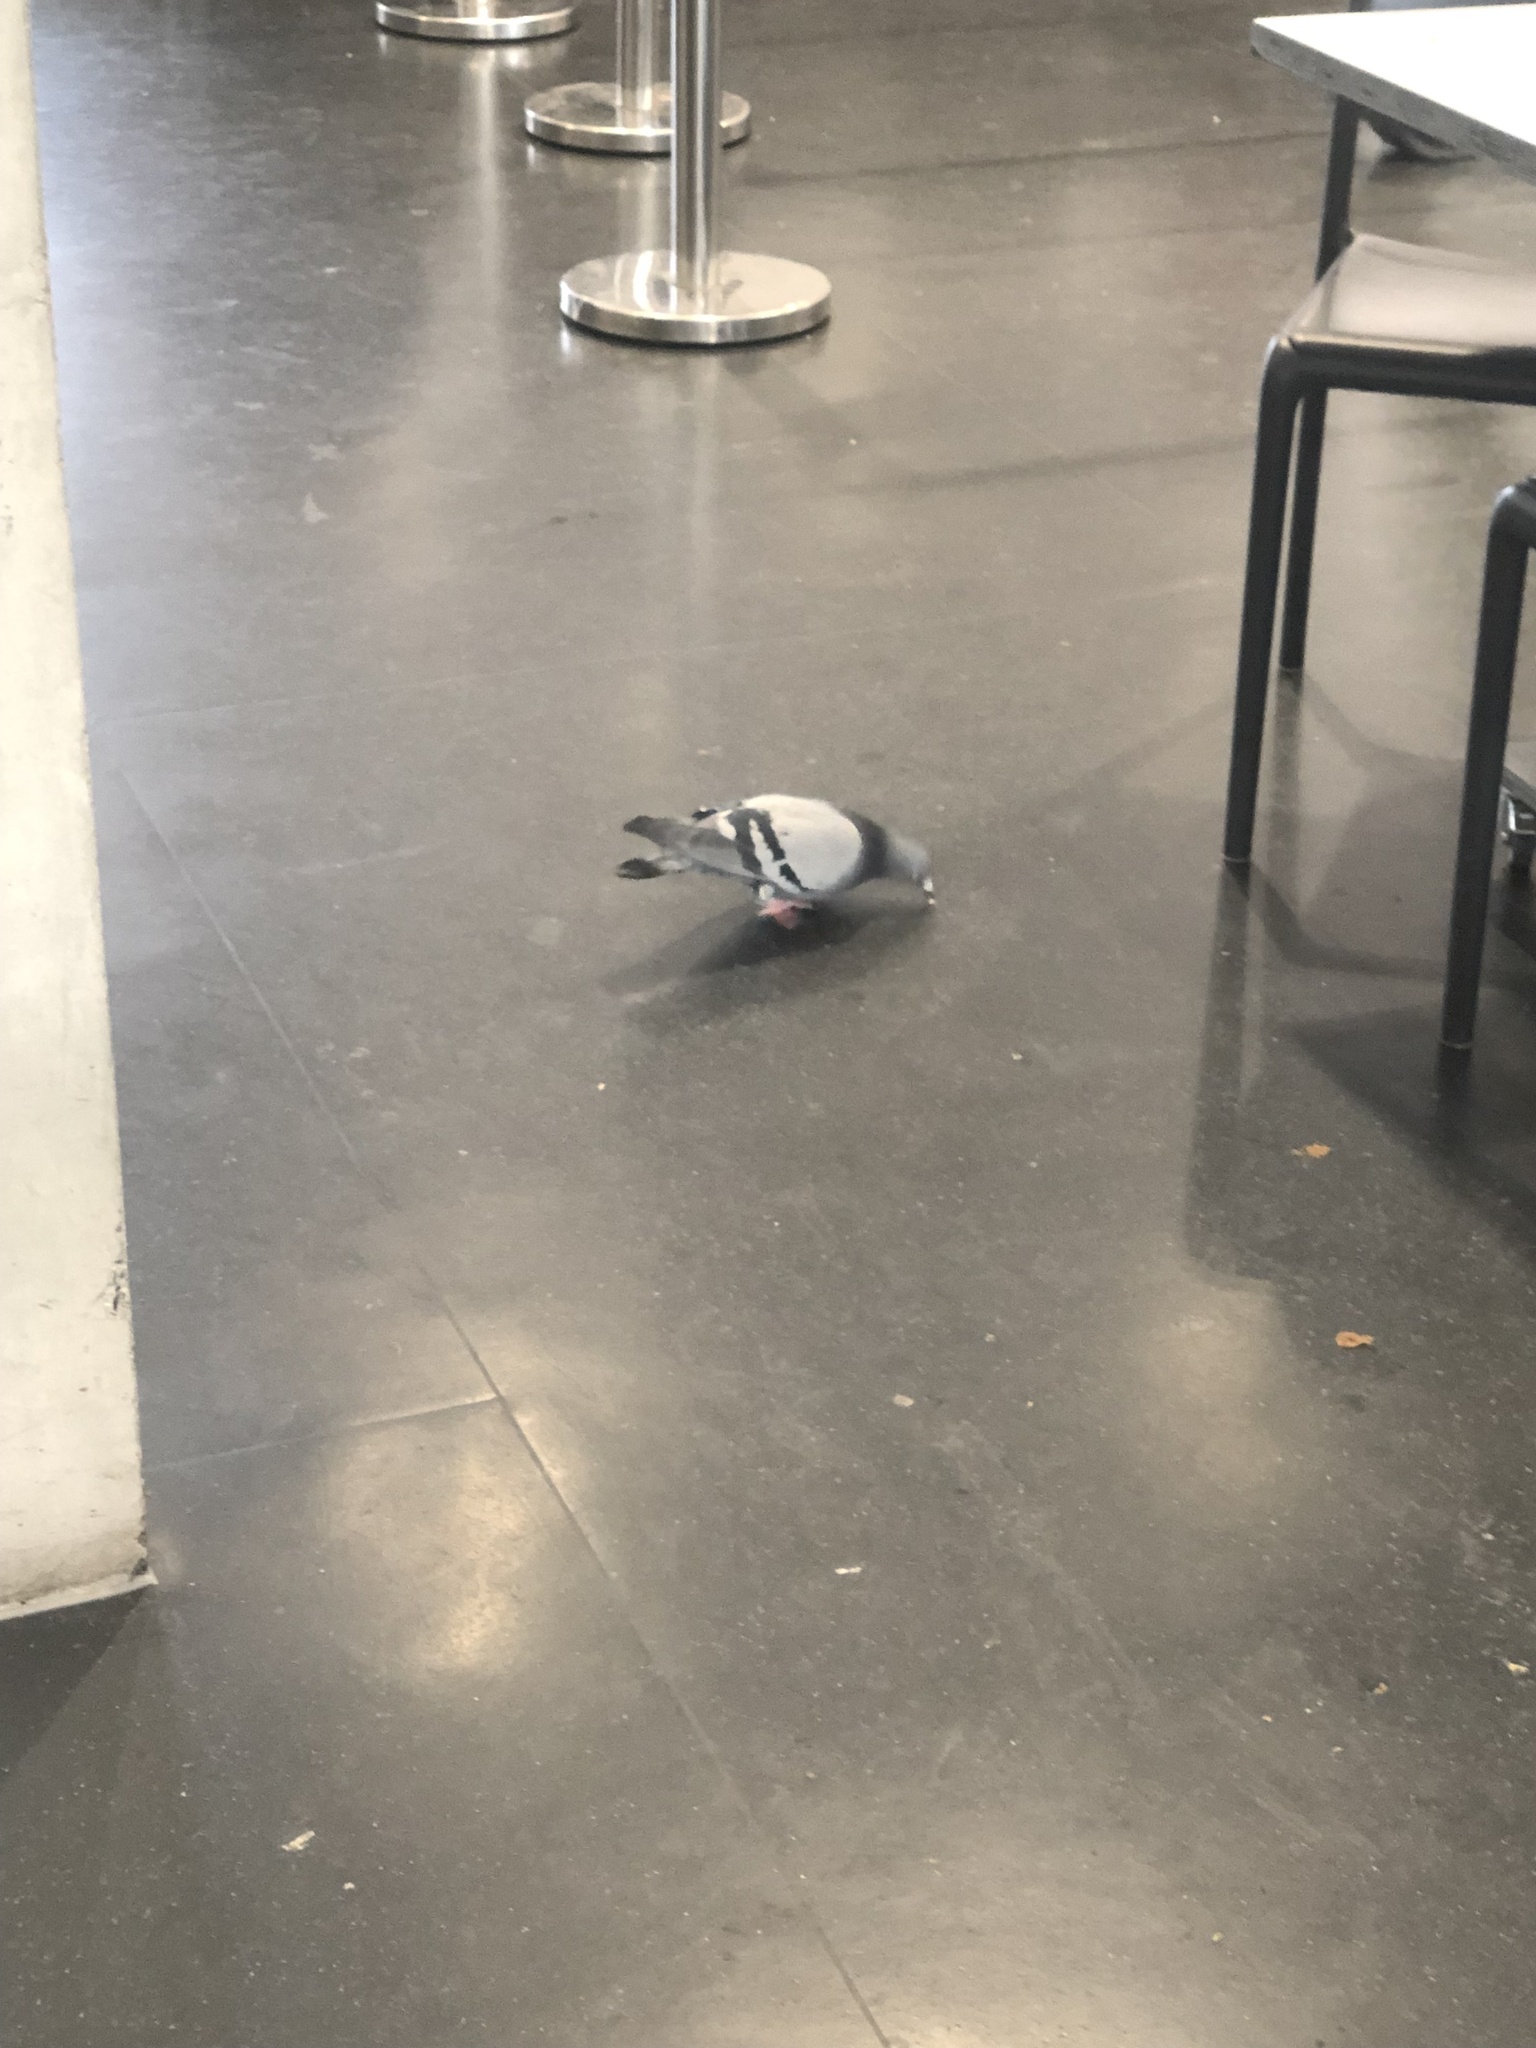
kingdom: Animalia
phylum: Chordata
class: Aves
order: Columbiformes
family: Columbidae
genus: Columba
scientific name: Columba livia
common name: Rock pigeon
